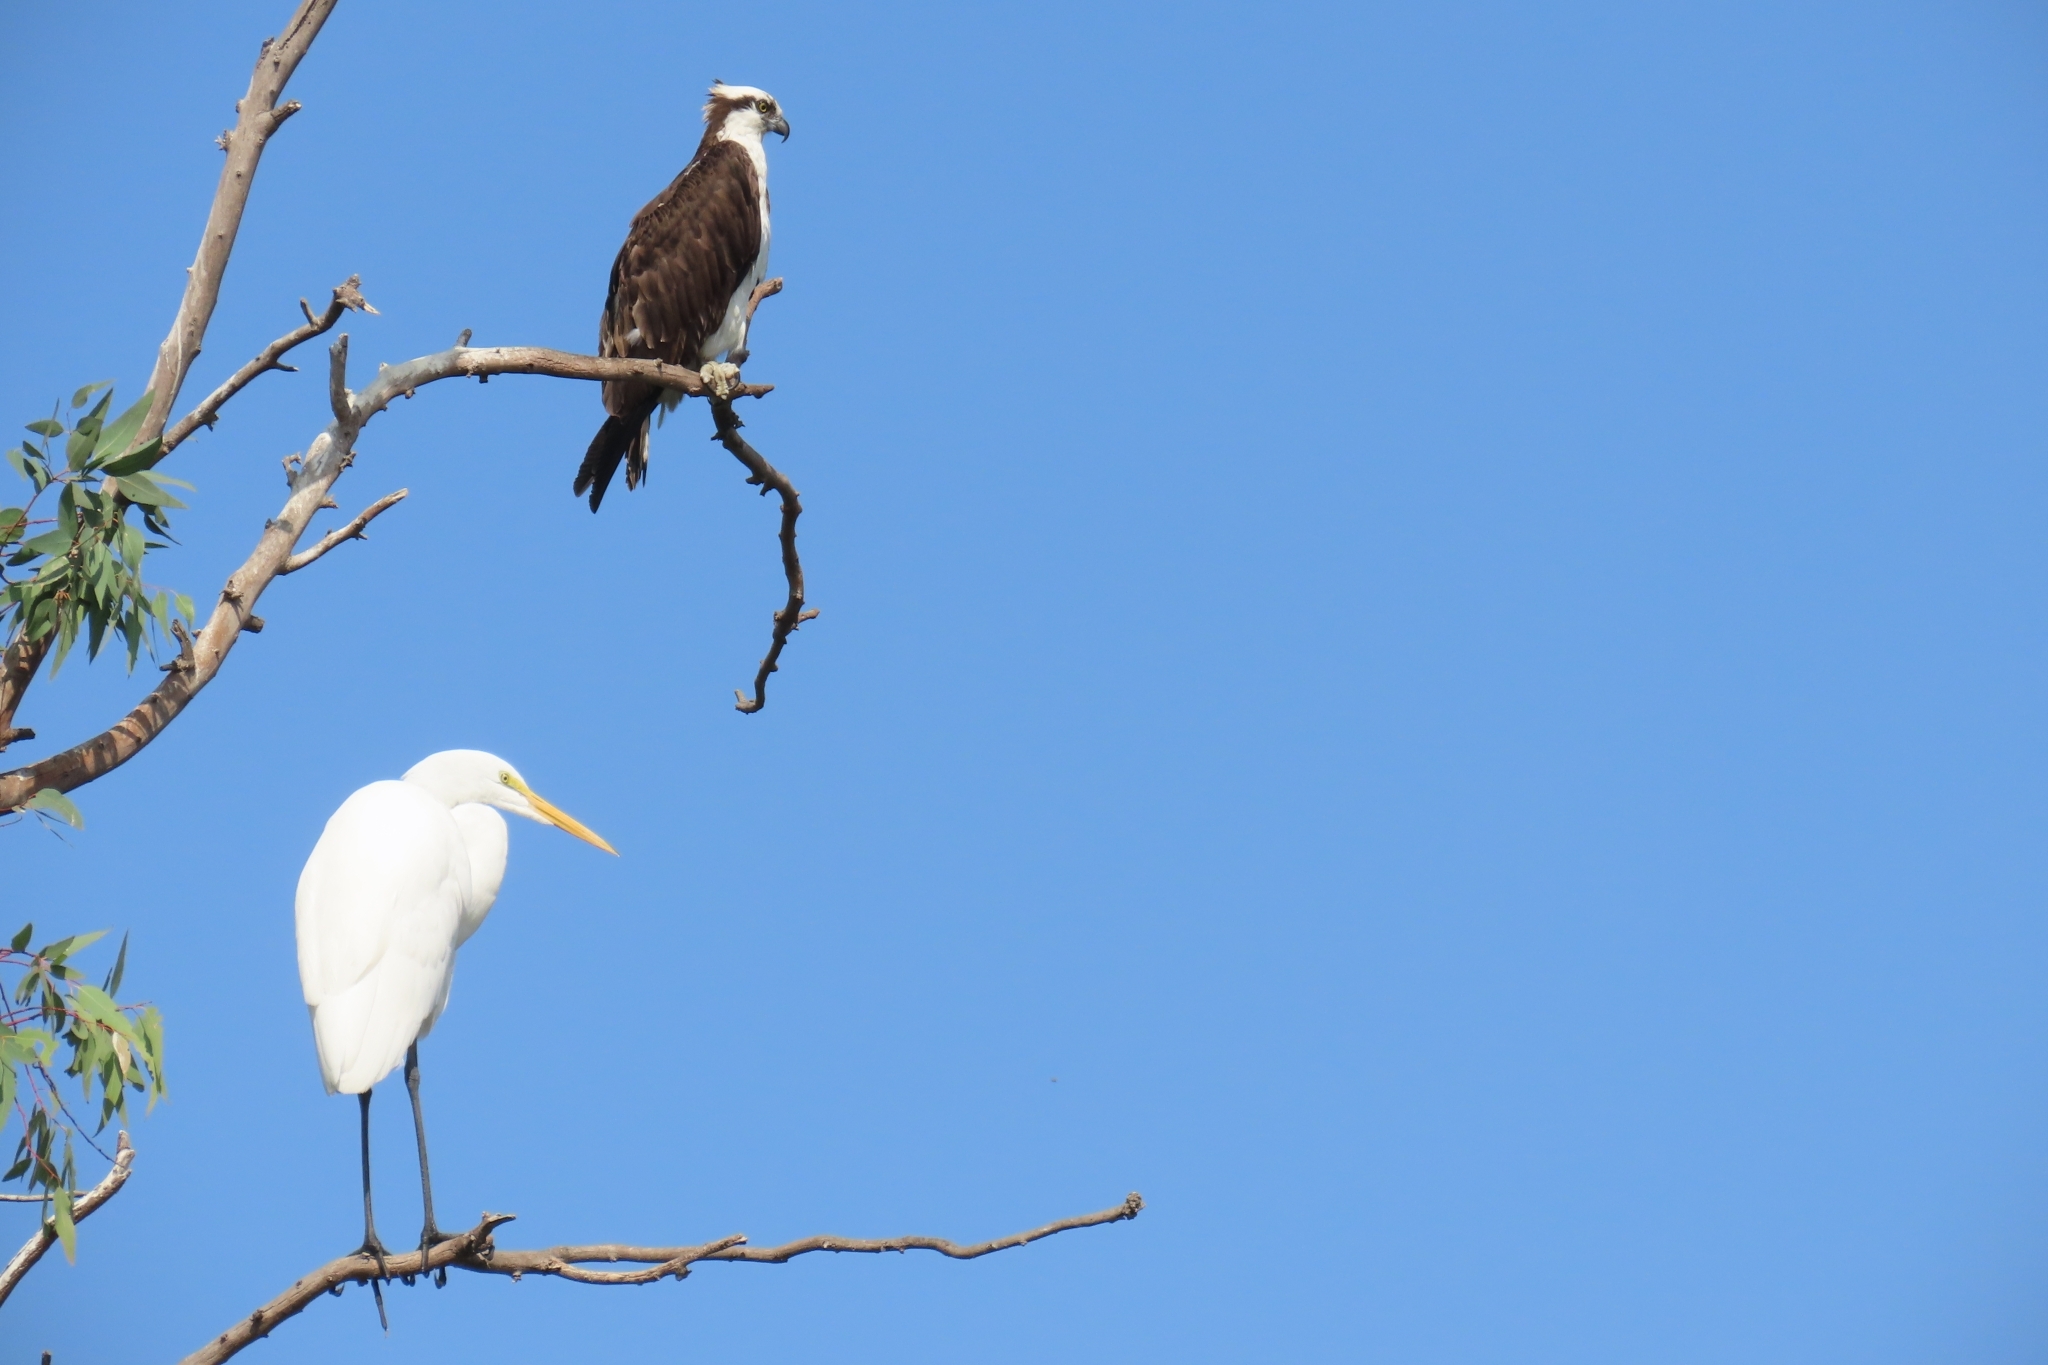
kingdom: Animalia
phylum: Chordata
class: Aves
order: Pelecaniformes
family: Ardeidae
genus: Ardea
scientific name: Ardea alba
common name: Great egret
